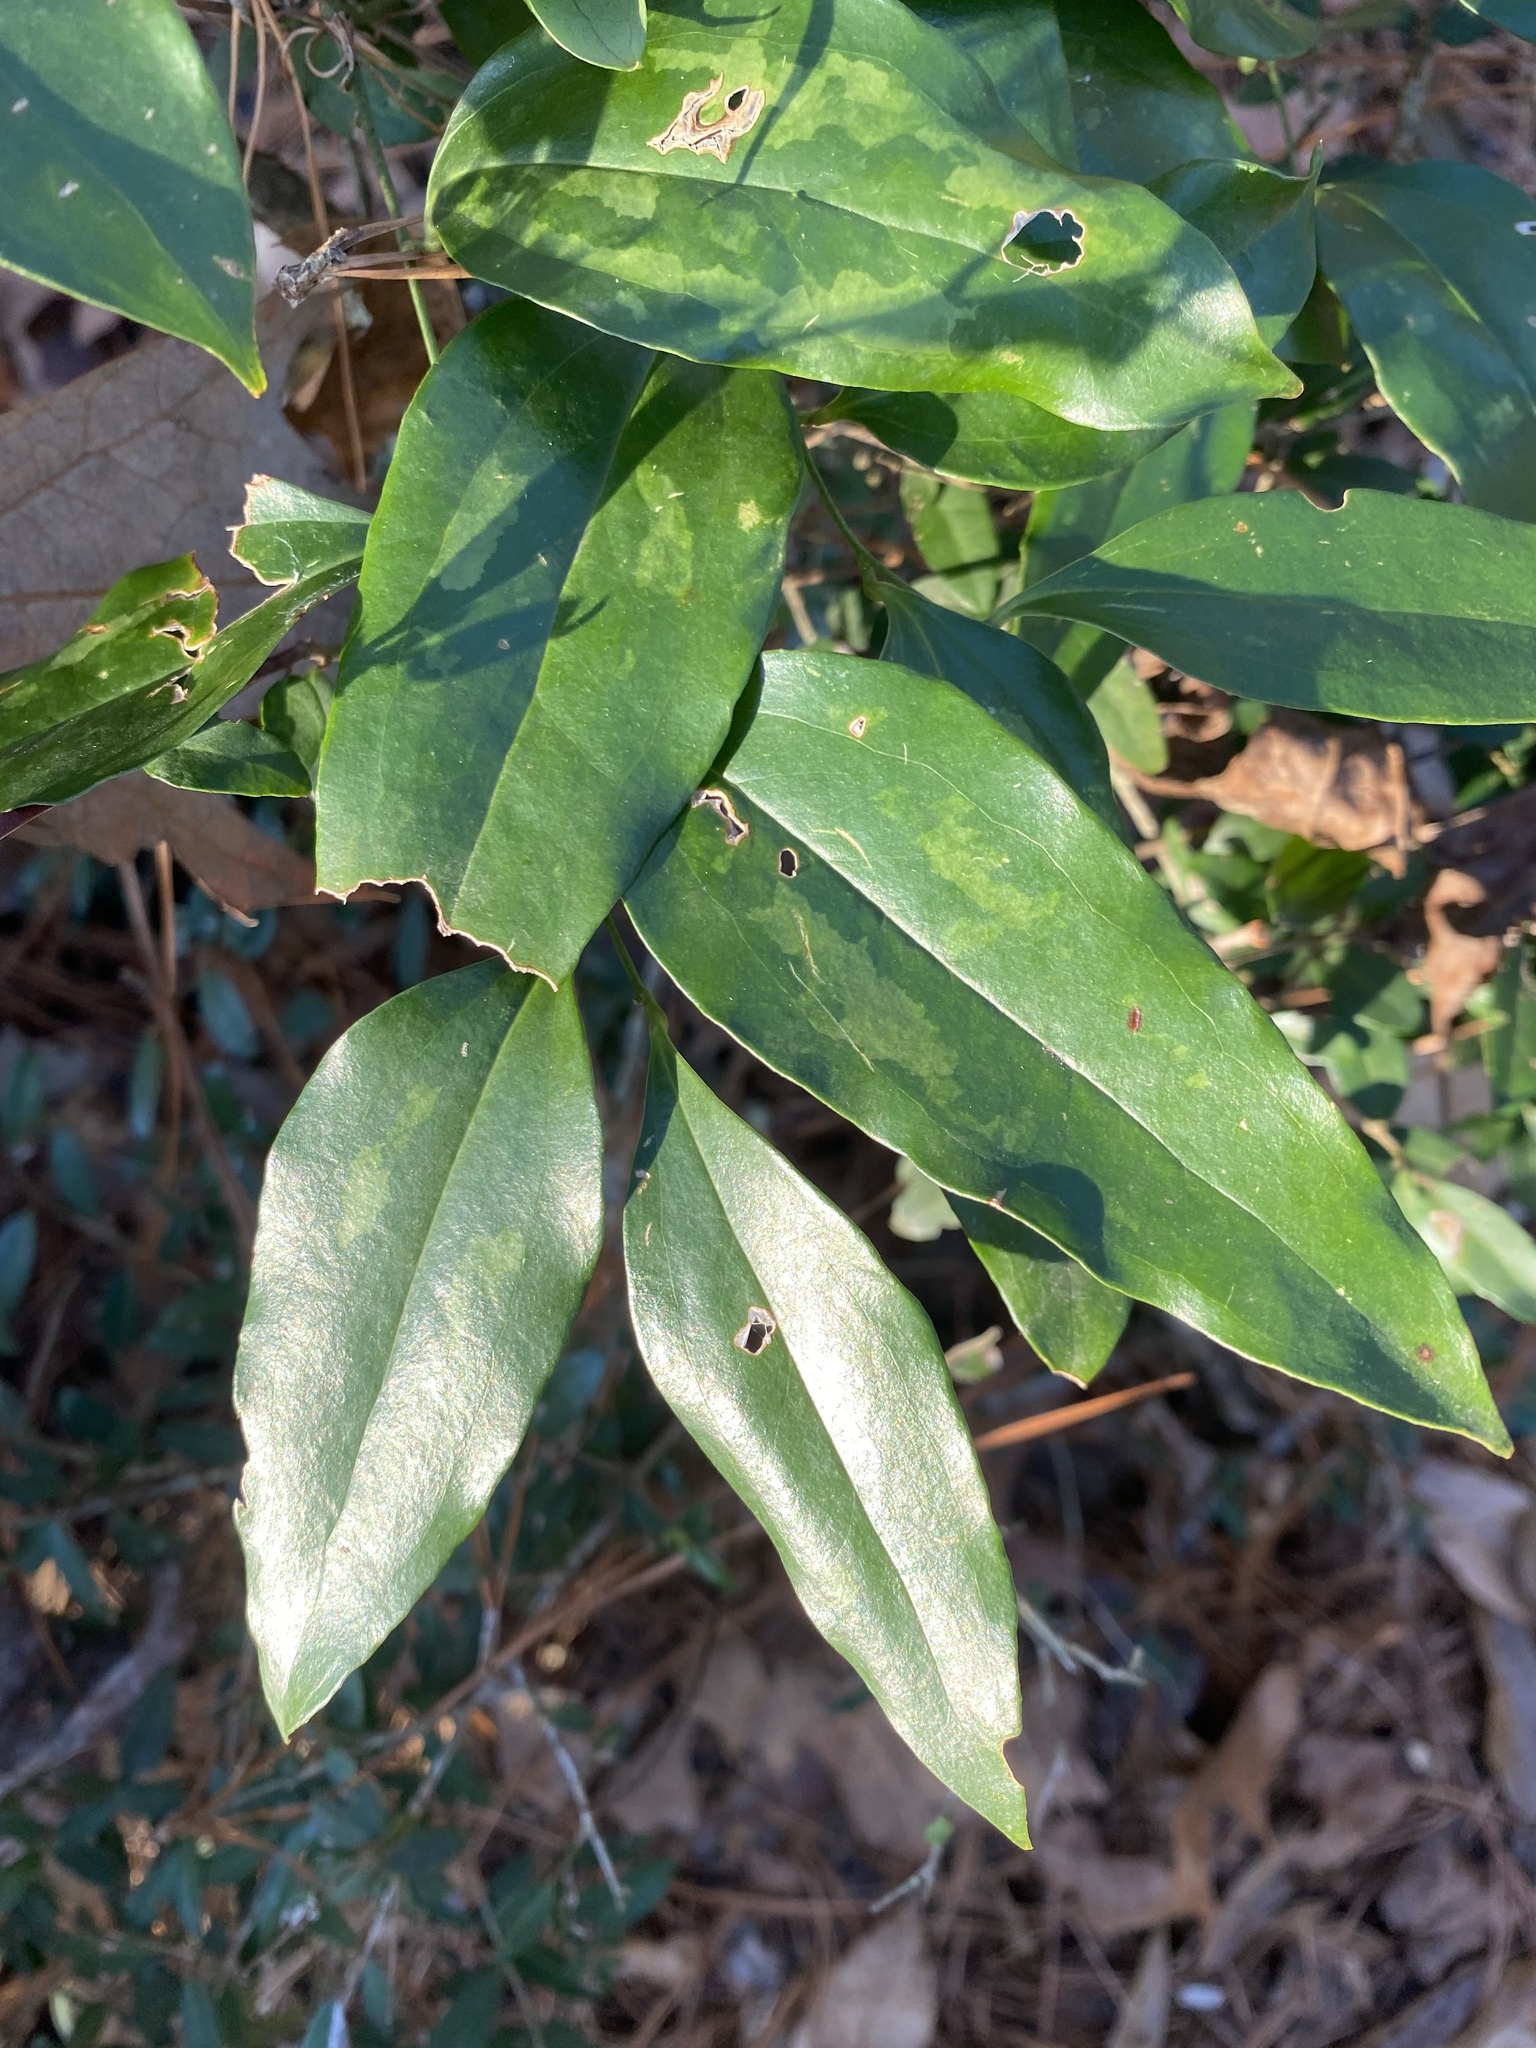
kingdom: Plantae
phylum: Tracheophyta
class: Liliopsida
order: Liliales
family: Smilacaceae
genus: Smilax
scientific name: Smilax maritima
